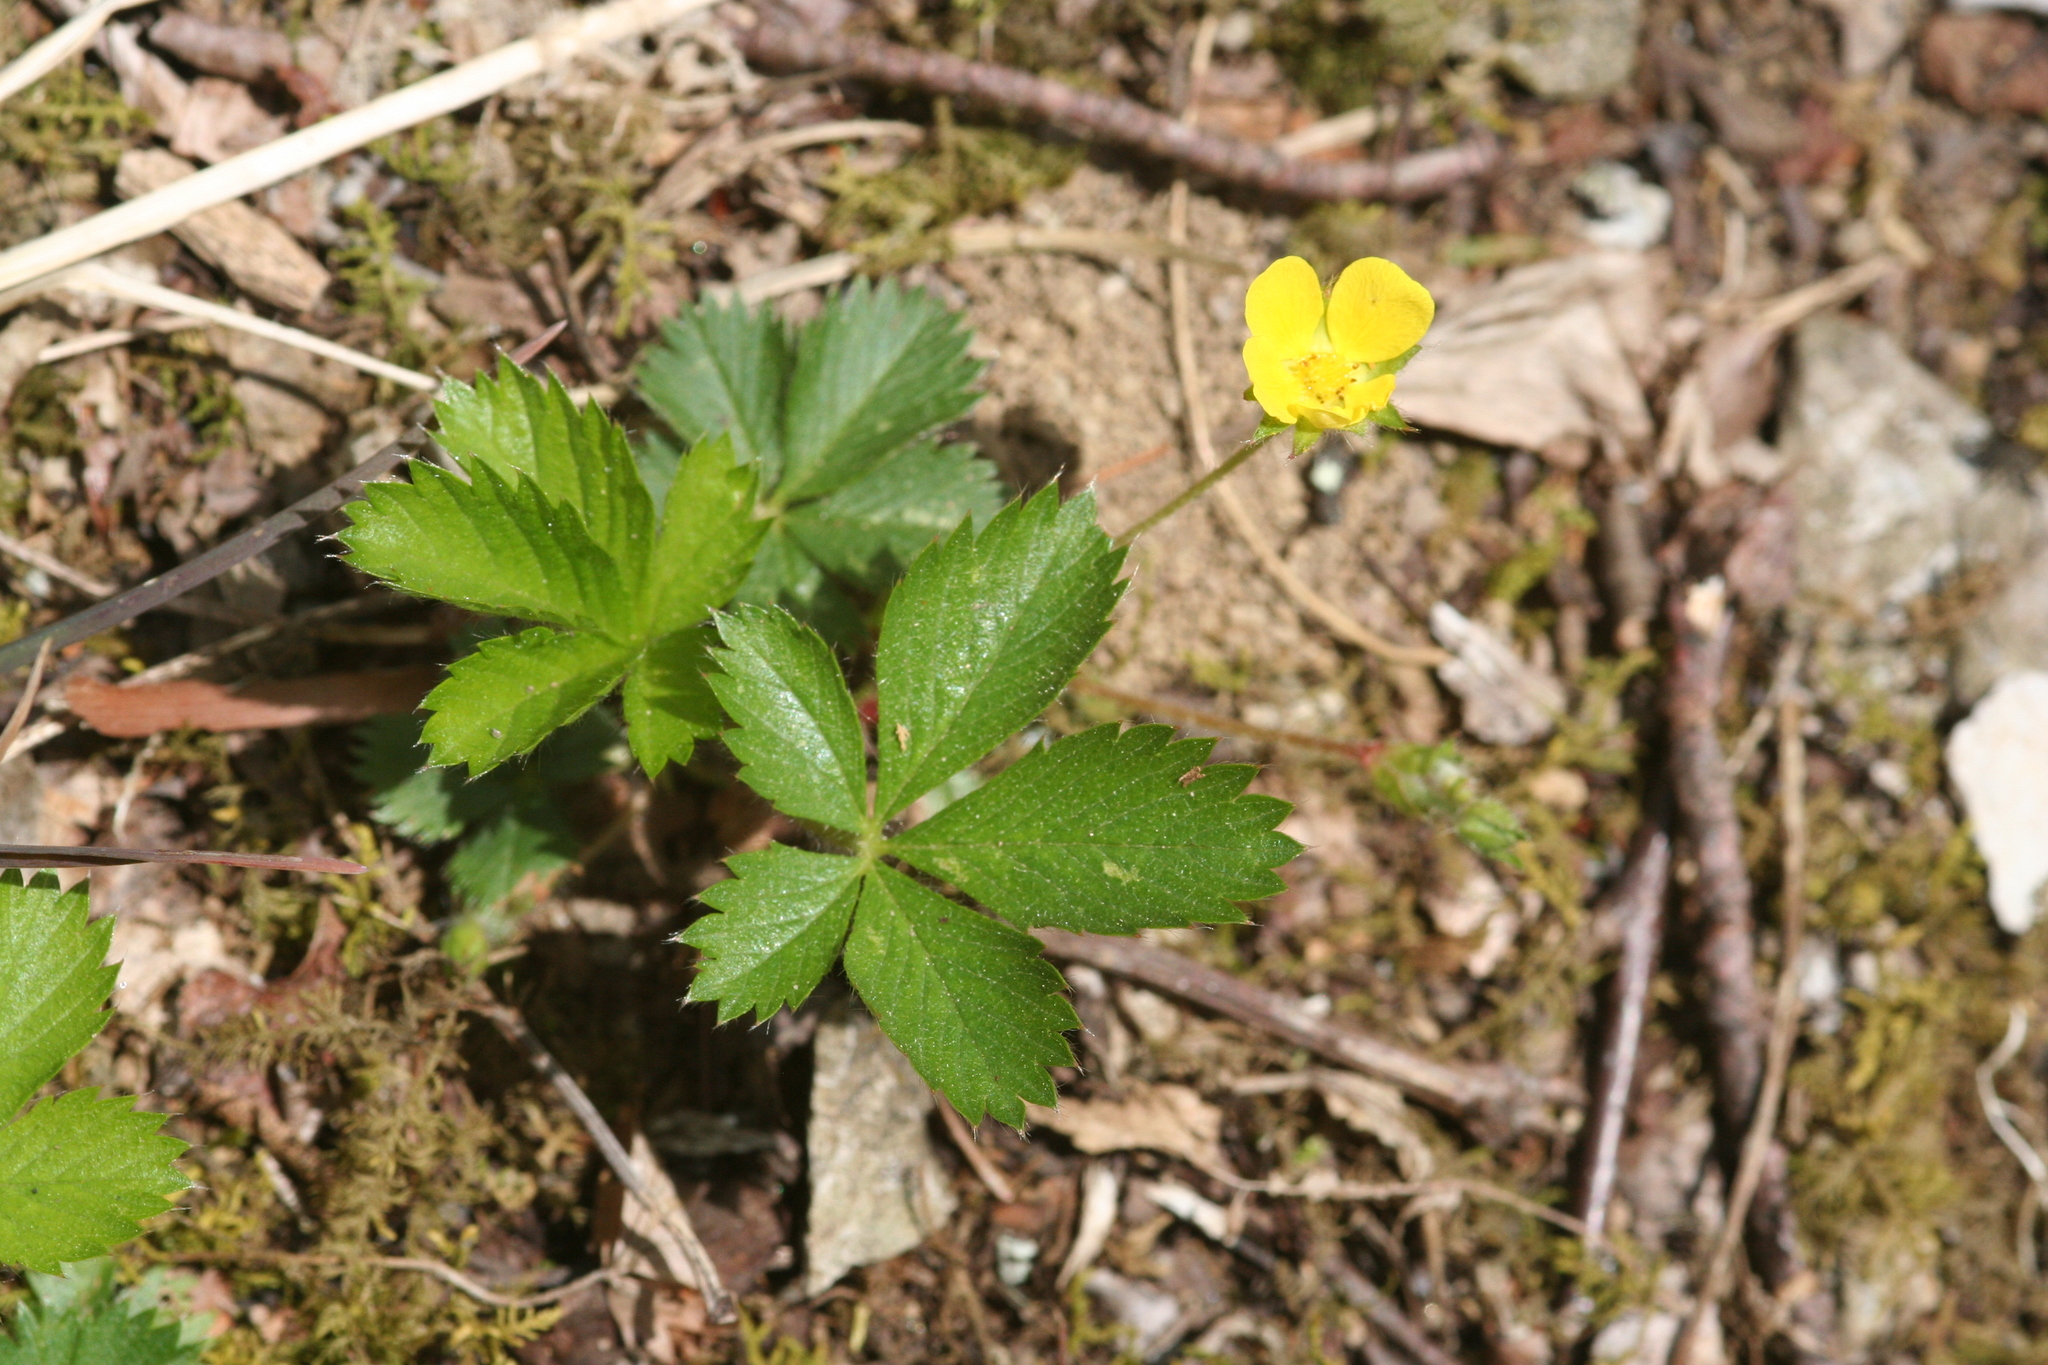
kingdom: Plantae
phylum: Tracheophyta
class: Magnoliopsida
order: Rosales
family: Rosaceae
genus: Potentilla
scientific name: Potentilla canadensis
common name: Canada cinquefoil
